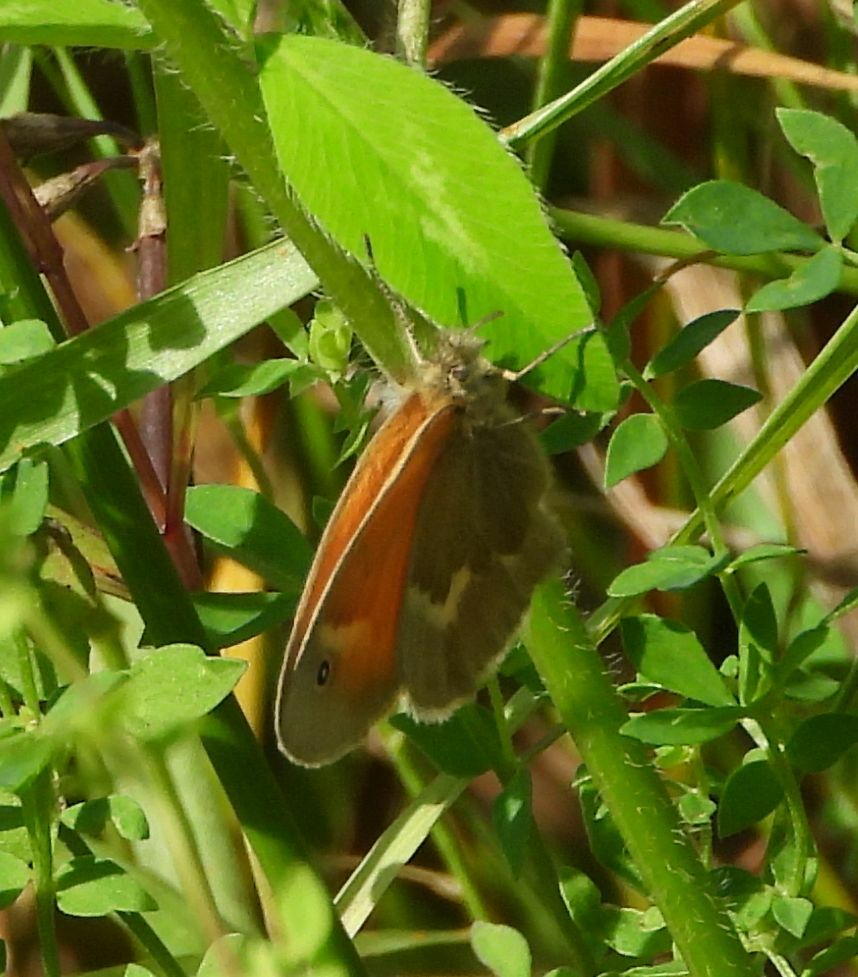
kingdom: Animalia
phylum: Arthropoda
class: Insecta
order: Lepidoptera
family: Nymphalidae
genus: Coenonympha
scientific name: Coenonympha california
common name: Common ringlet
